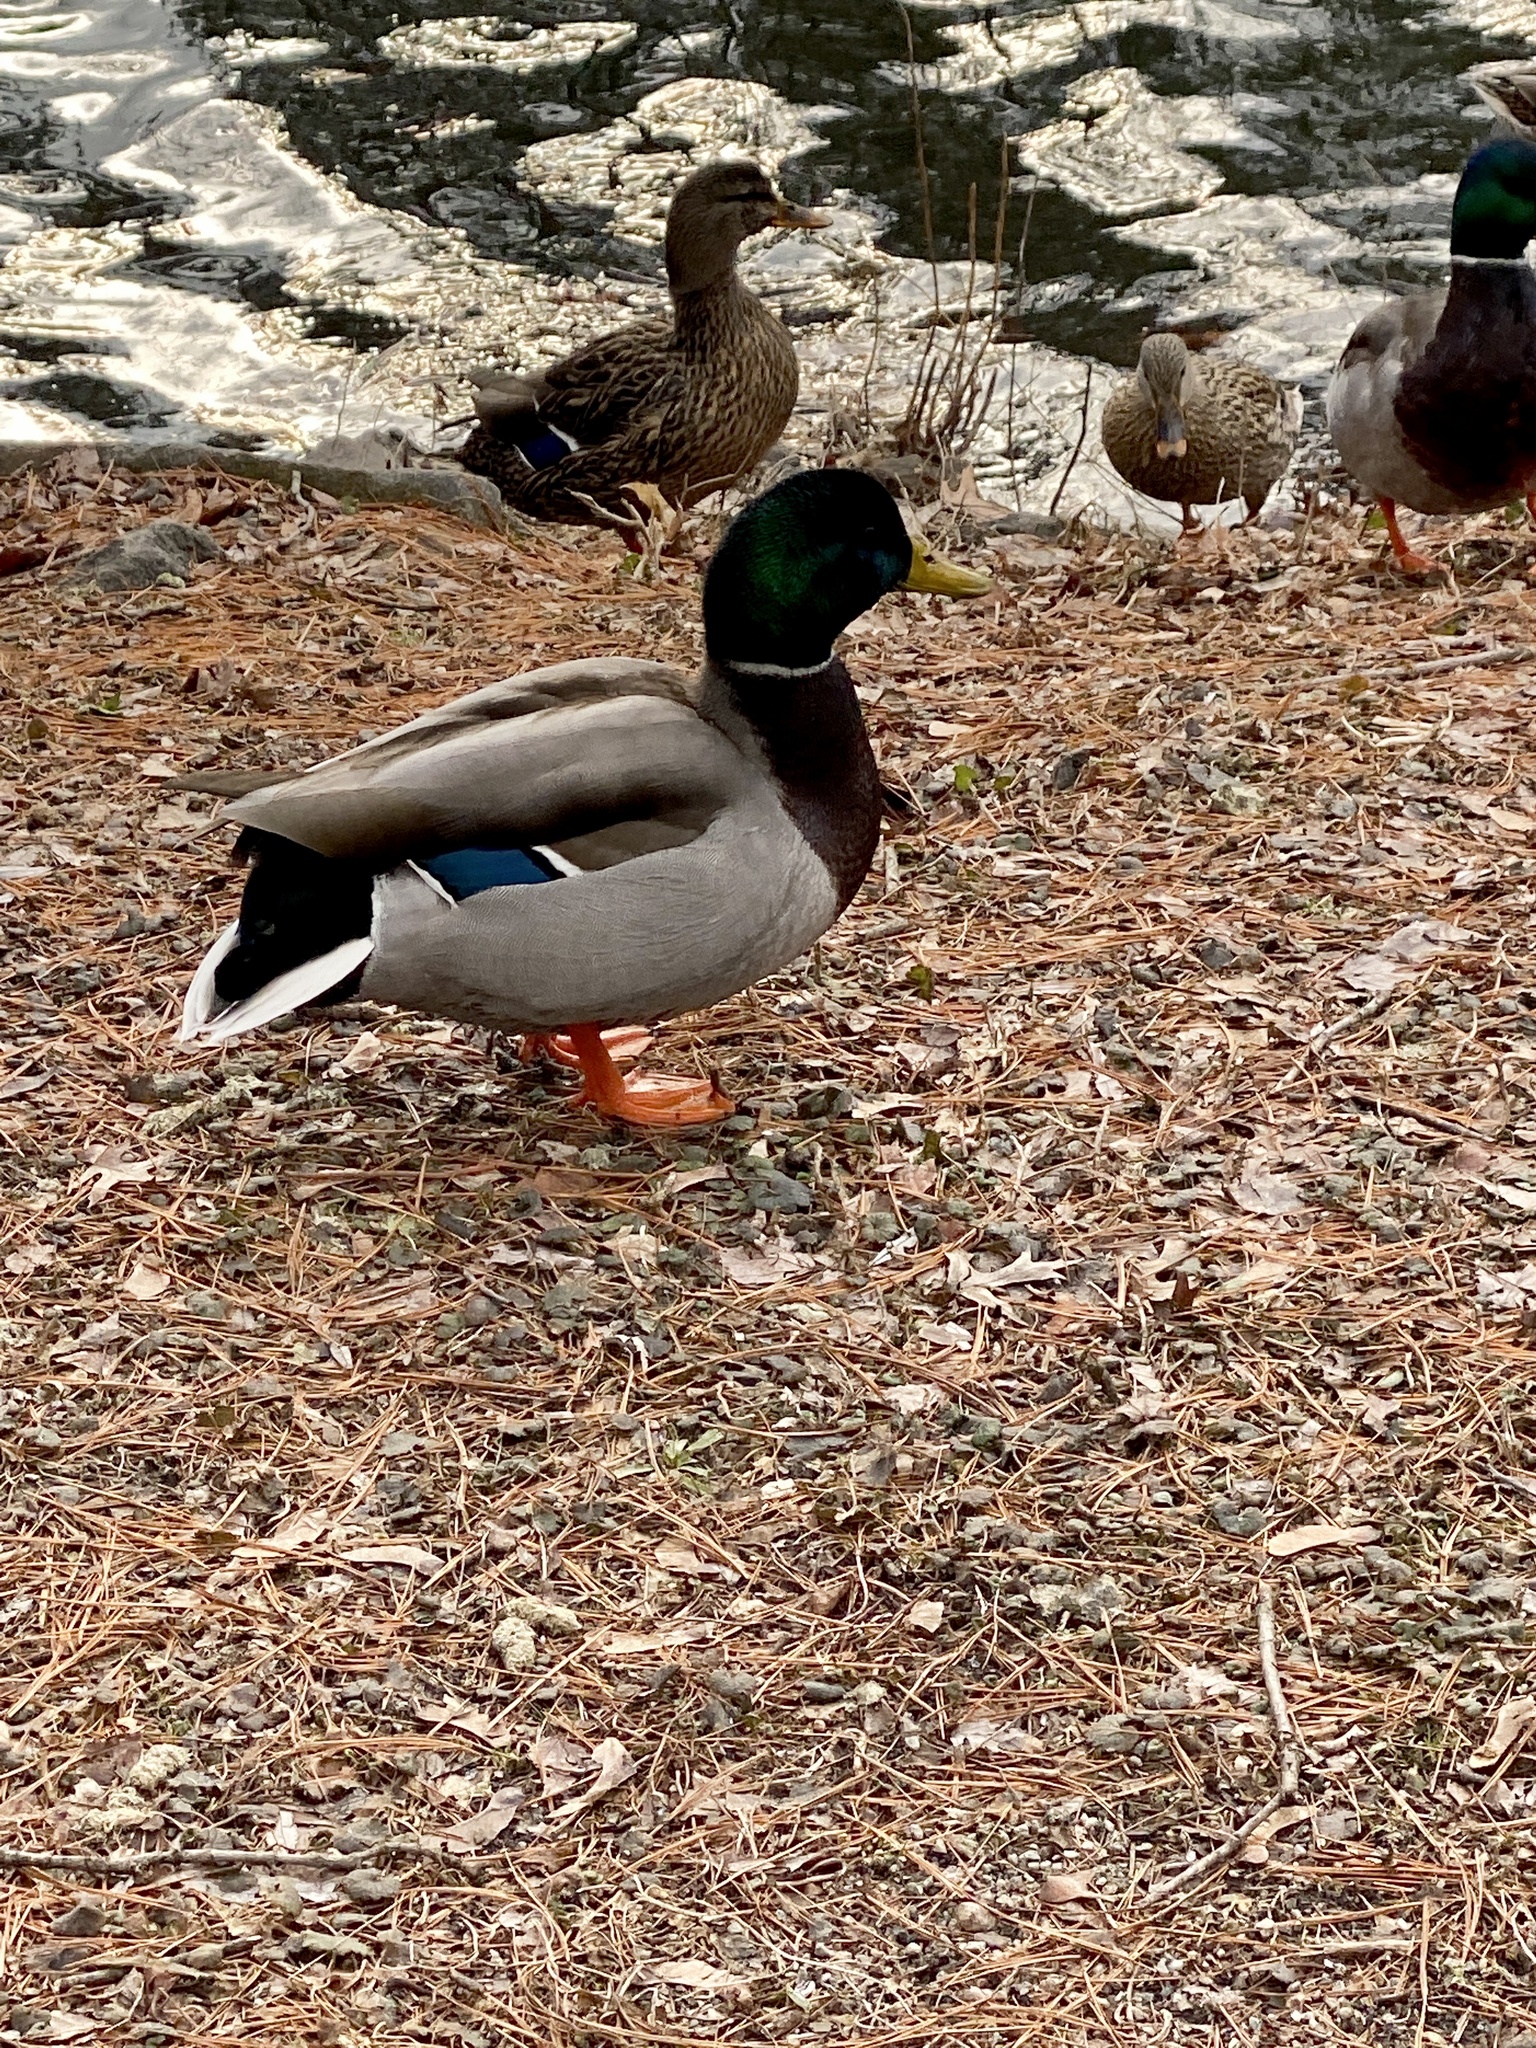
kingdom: Animalia
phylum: Chordata
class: Aves
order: Anseriformes
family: Anatidae
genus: Anas
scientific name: Anas platyrhynchos
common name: Mallard
